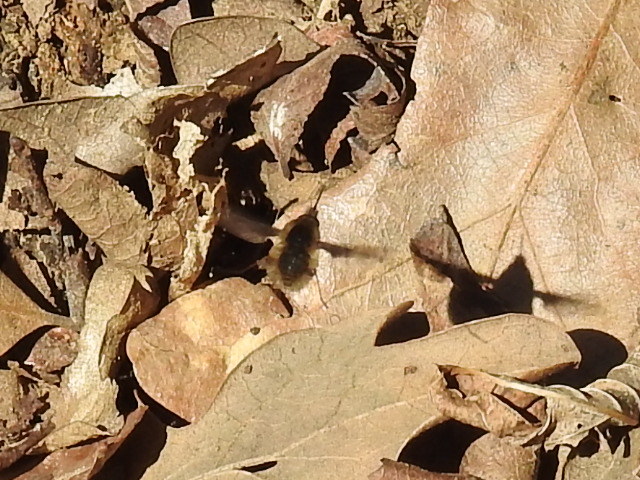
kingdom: Animalia
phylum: Arthropoda
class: Insecta
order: Diptera
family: Bombyliidae
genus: Bombylius
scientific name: Bombylius major
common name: Bee fly
